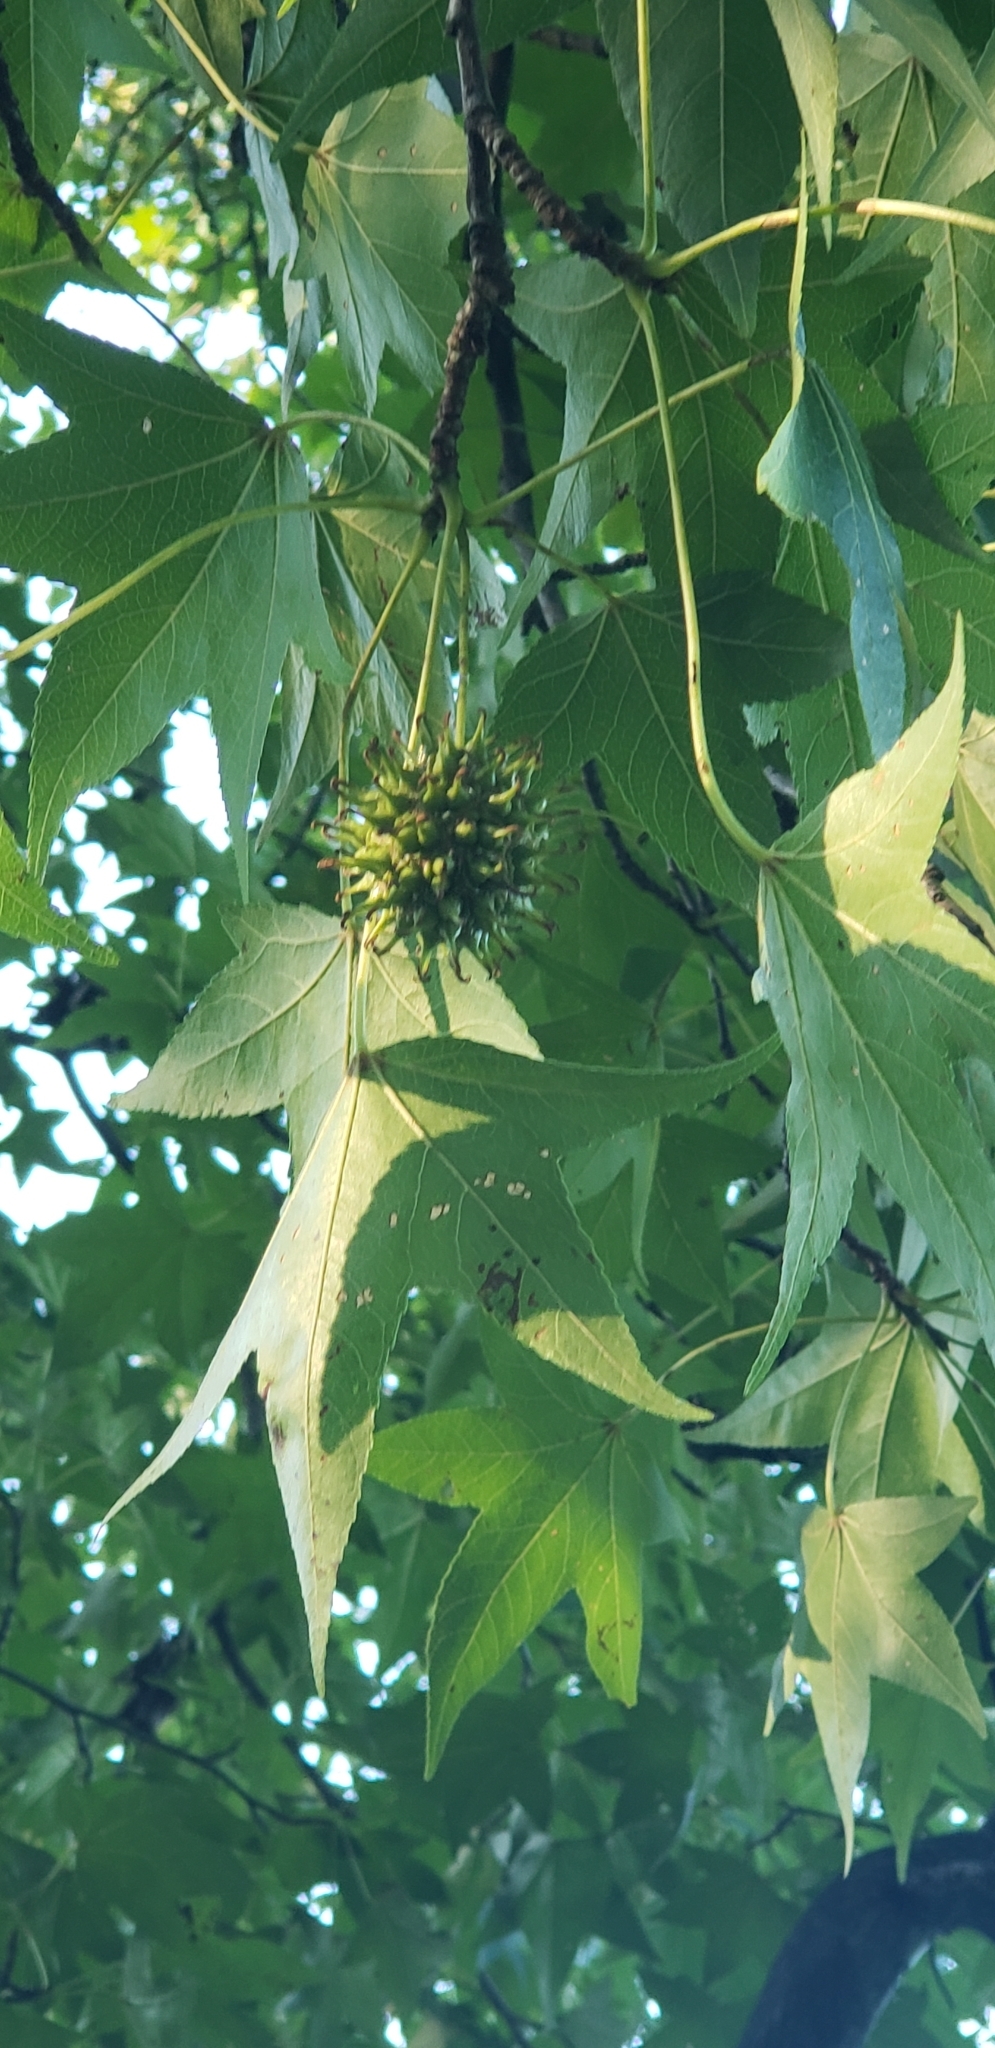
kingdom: Plantae
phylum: Tracheophyta
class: Magnoliopsida
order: Saxifragales
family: Altingiaceae
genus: Liquidambar
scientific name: Liquidambar styraciflua
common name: Sweet gum
